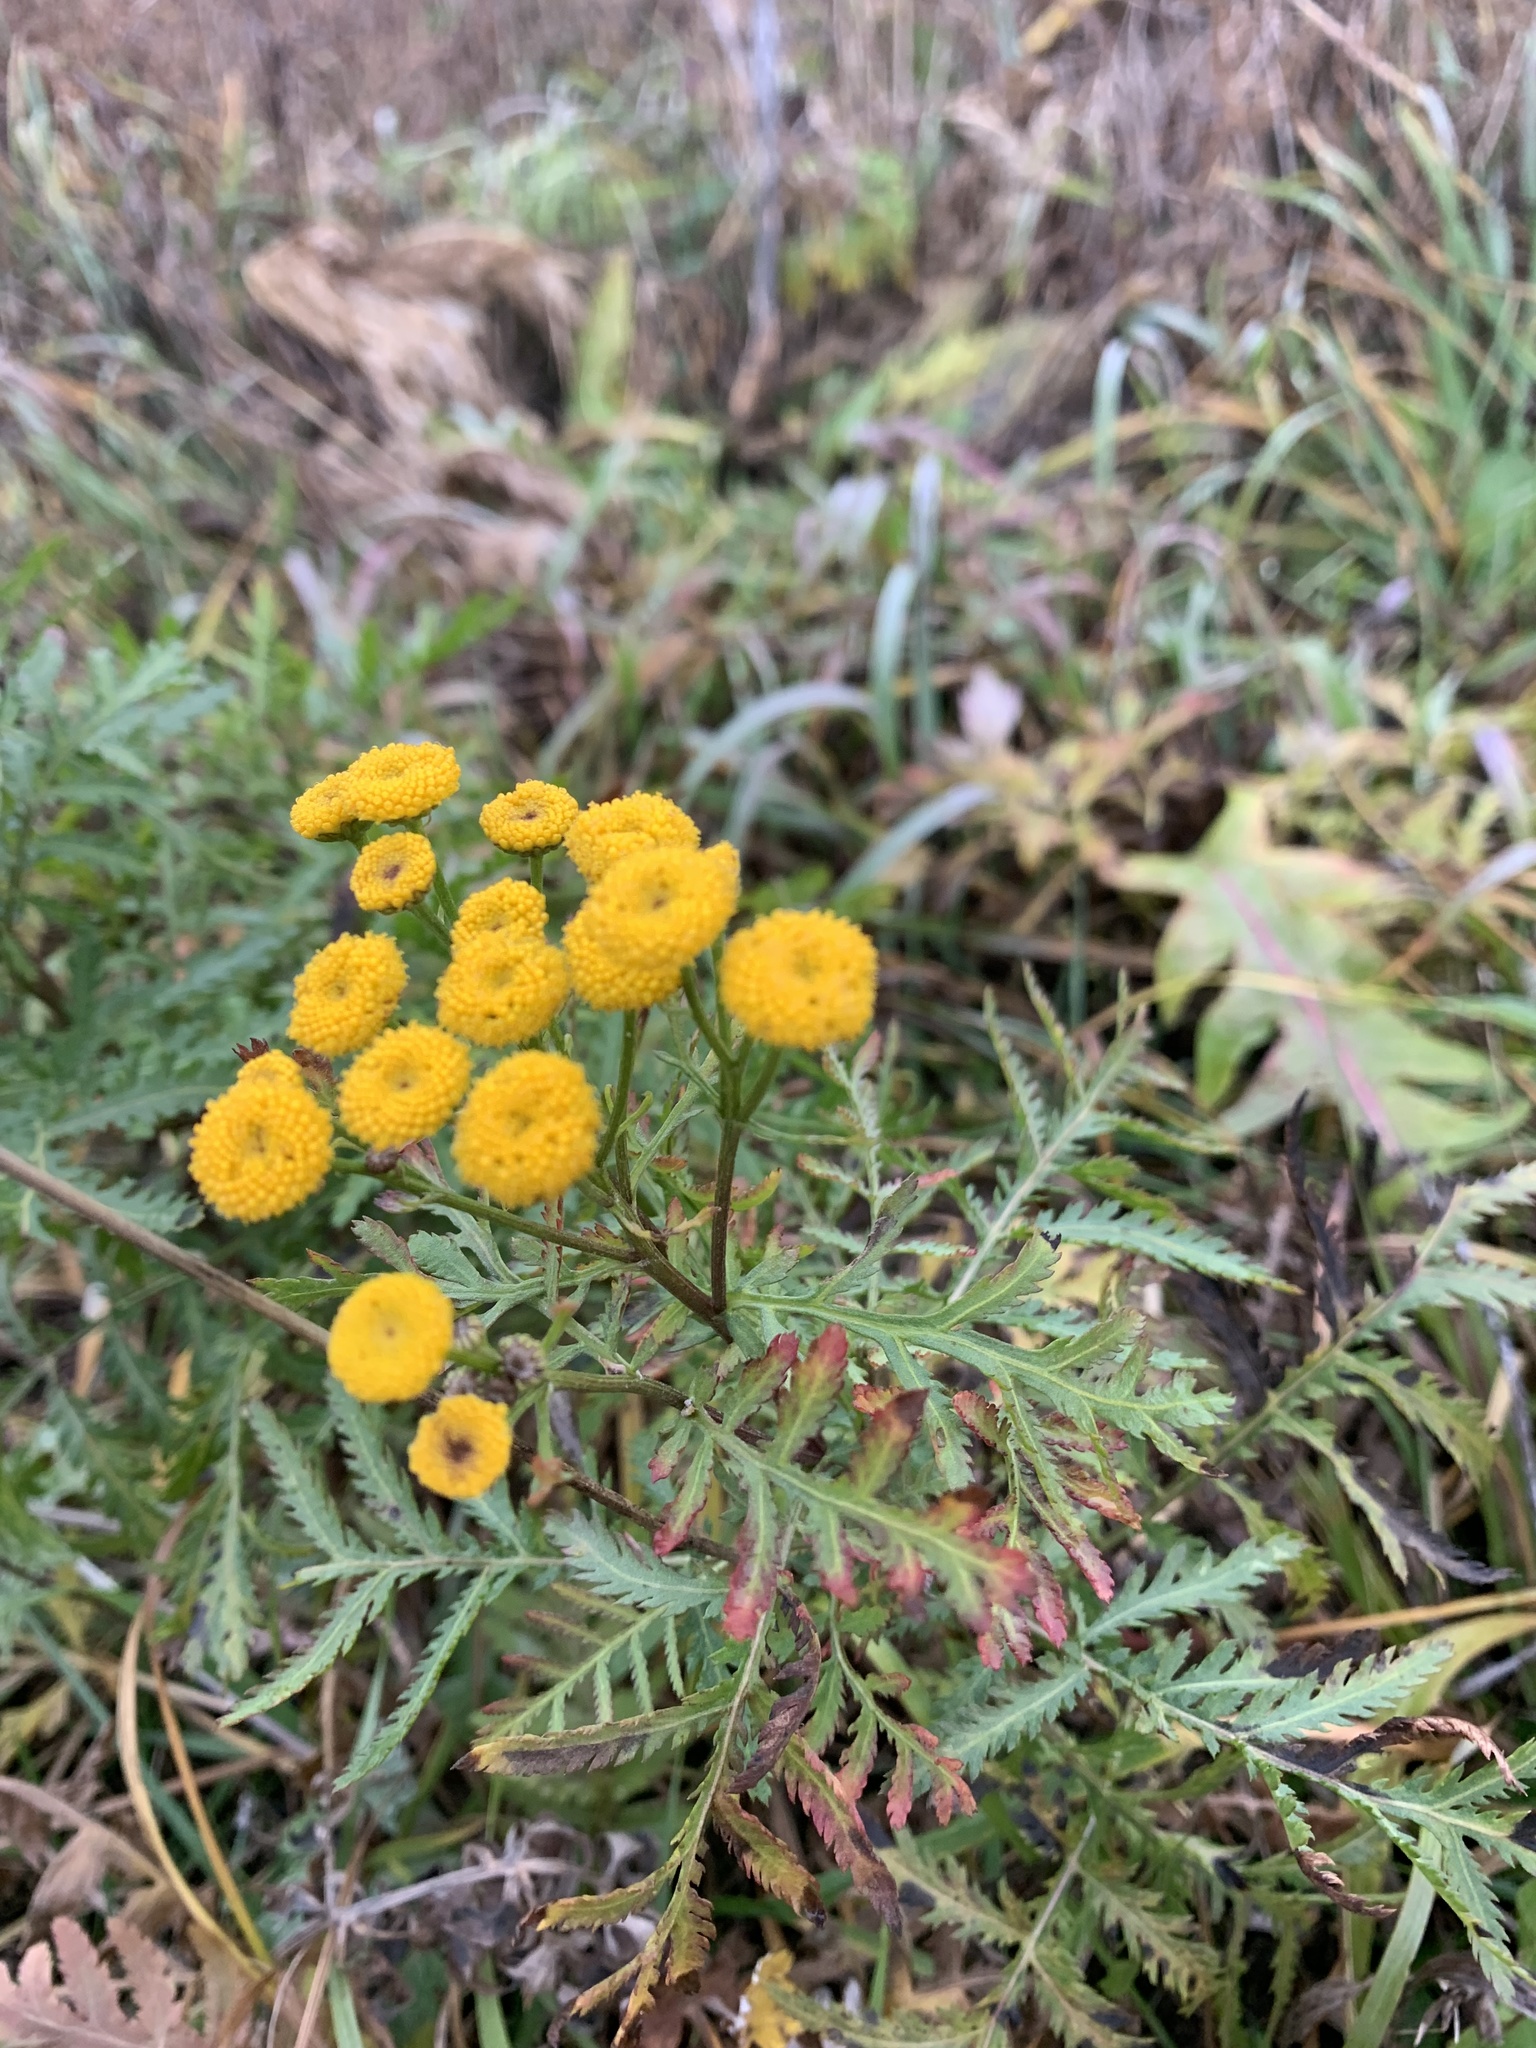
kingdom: Plantae
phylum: Tracheophyta
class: Magnoliopsida
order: Asterales
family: Asteraceae
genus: Tanacetum
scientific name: Tanacetum vulgare
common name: Common tansy
